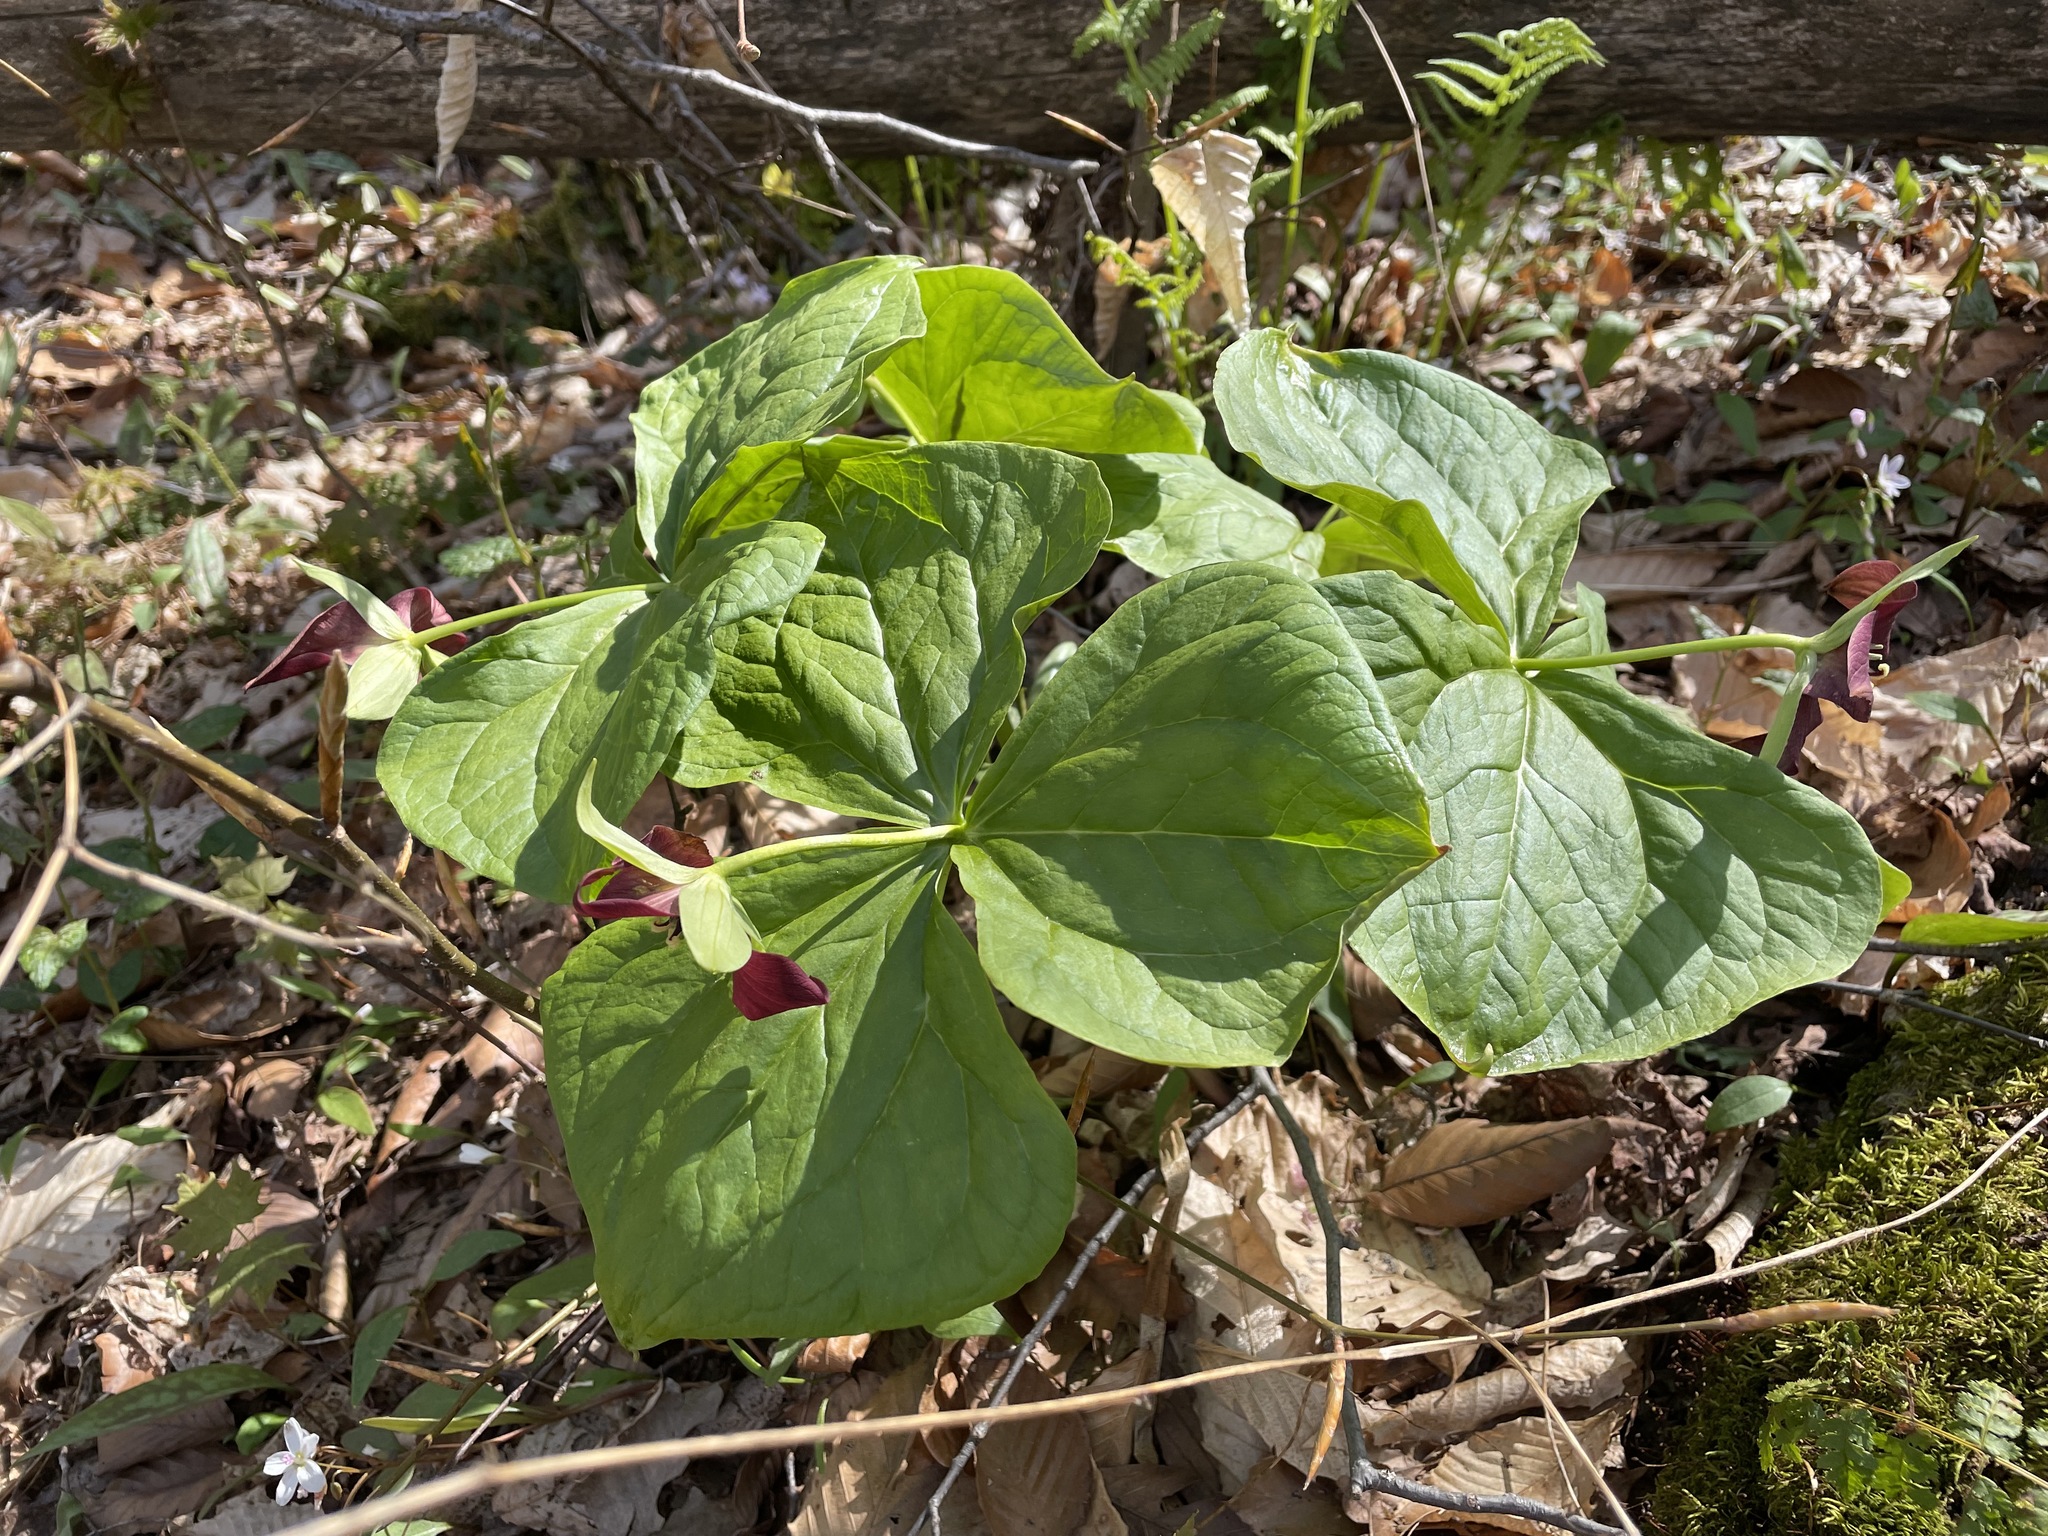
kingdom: Plantae
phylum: Tracheophyta
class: Liliopsida
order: Liliales
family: Melanthiaceae
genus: Trillium
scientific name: Trillium erectum
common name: Purple trillium
